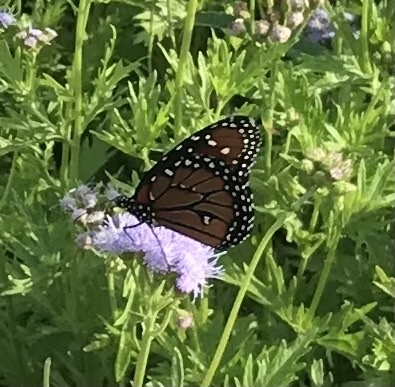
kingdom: Animalia
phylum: Arthropoda
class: Insecta
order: Lepidoptera
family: Nymphalidae
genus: Danaus
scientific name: Danaus gilippus
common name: Queen
